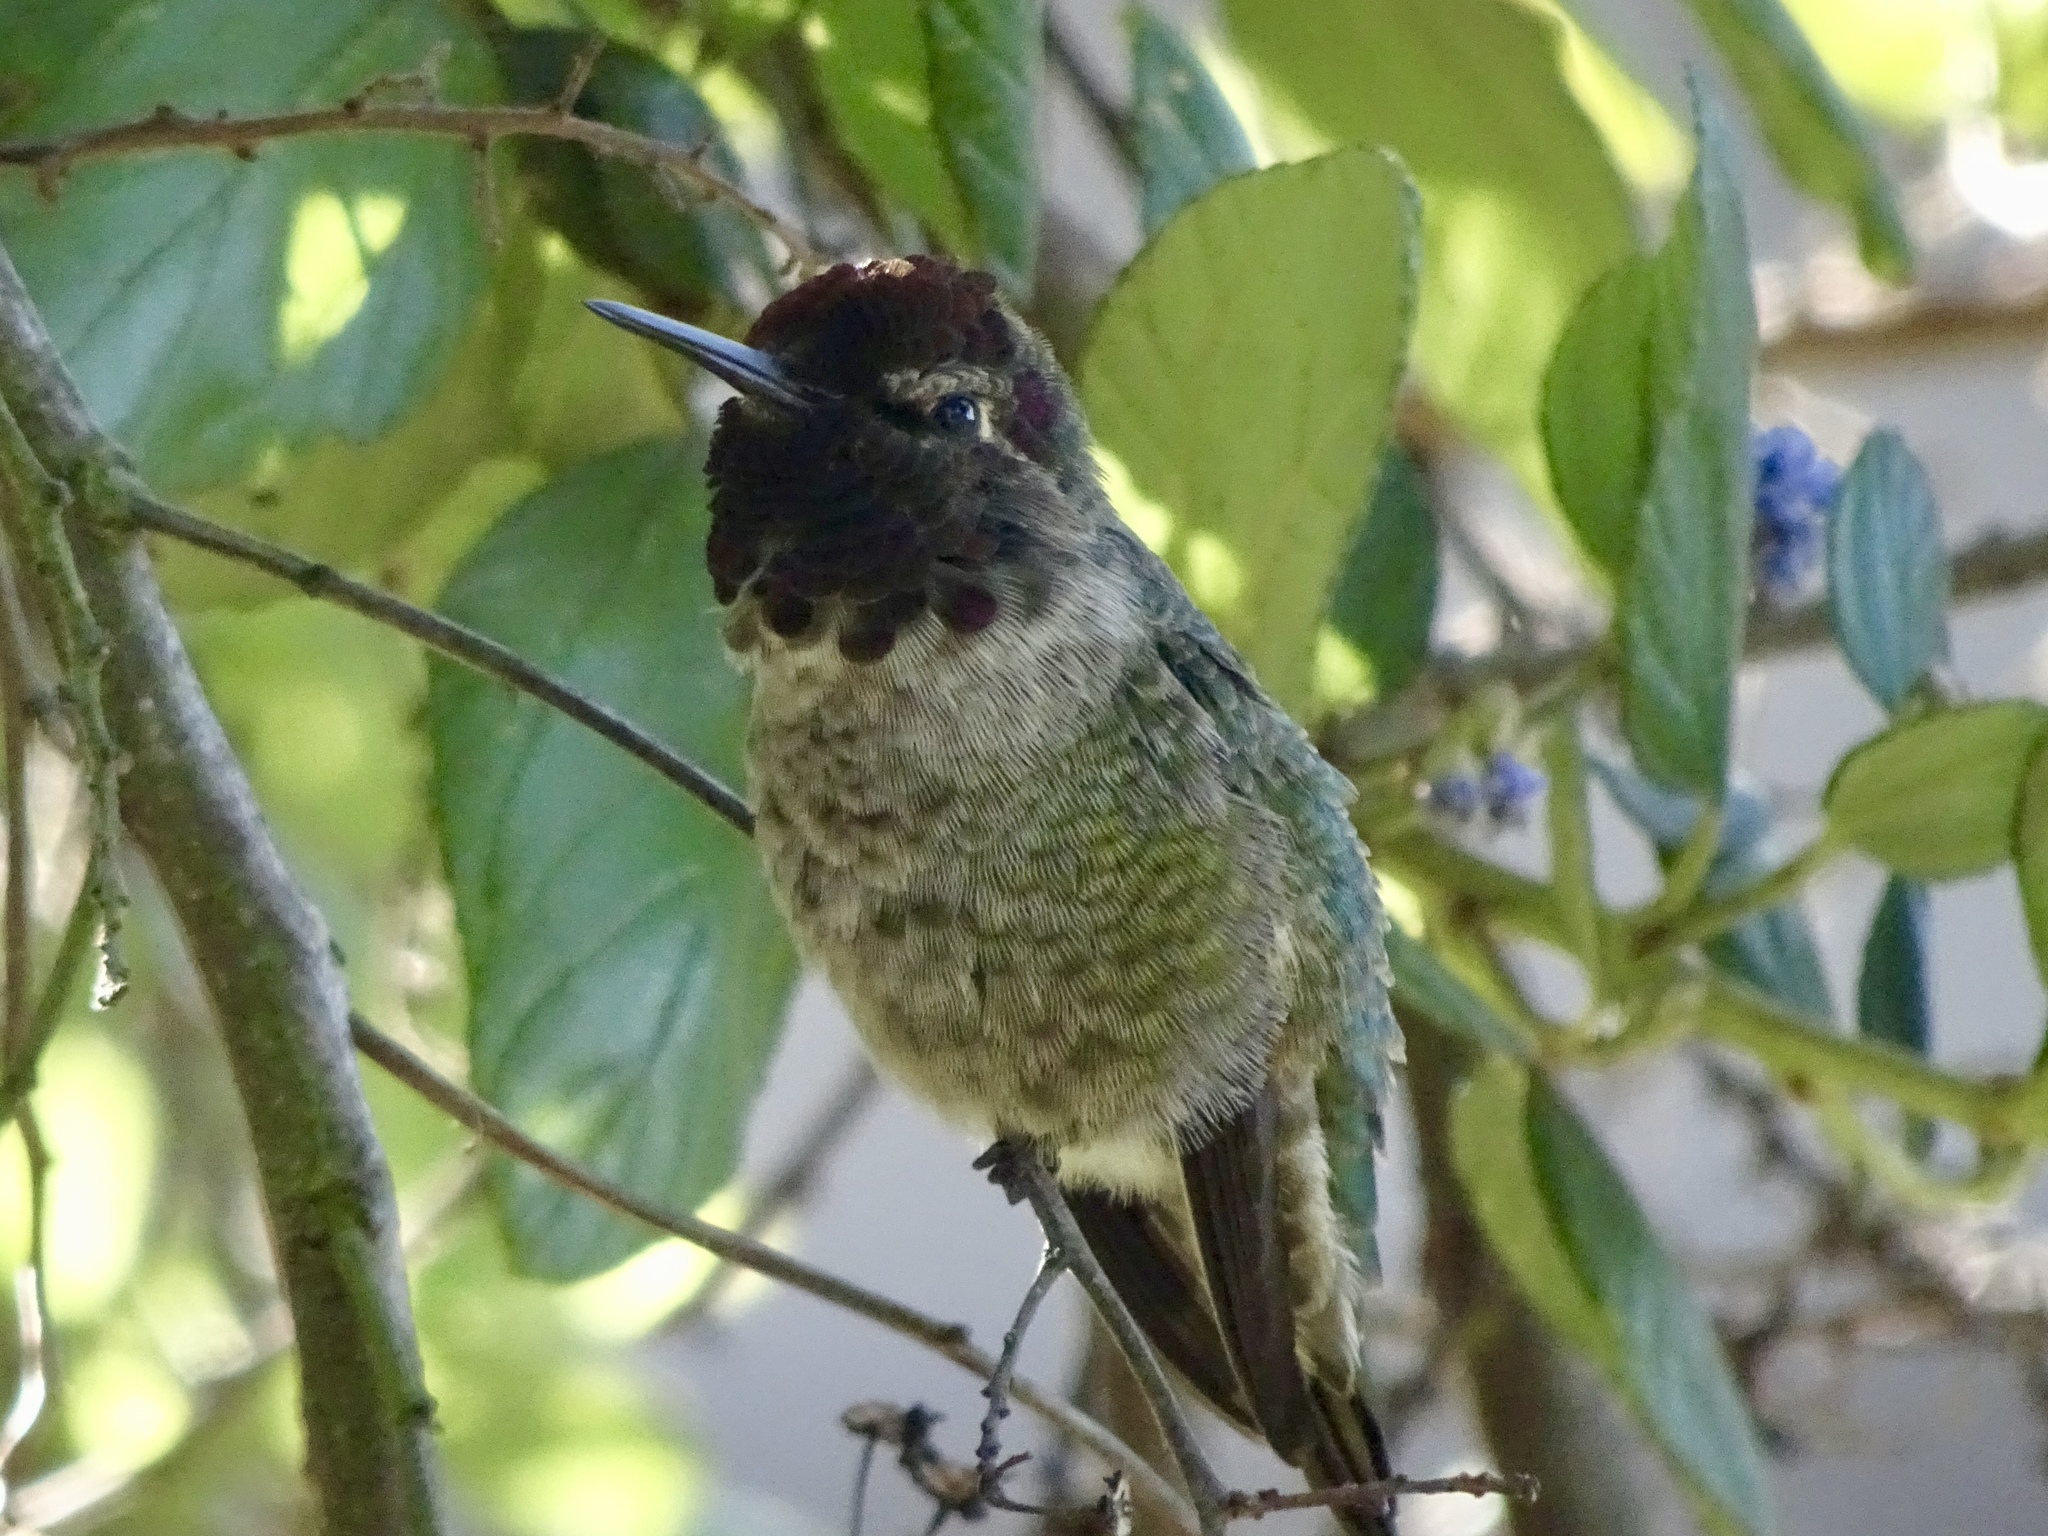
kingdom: Animalia
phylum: Chordata
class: Aves
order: Apodiformes
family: Trochilidae
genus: Calypte
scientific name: Calypte anna
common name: Anna's hummingbird
